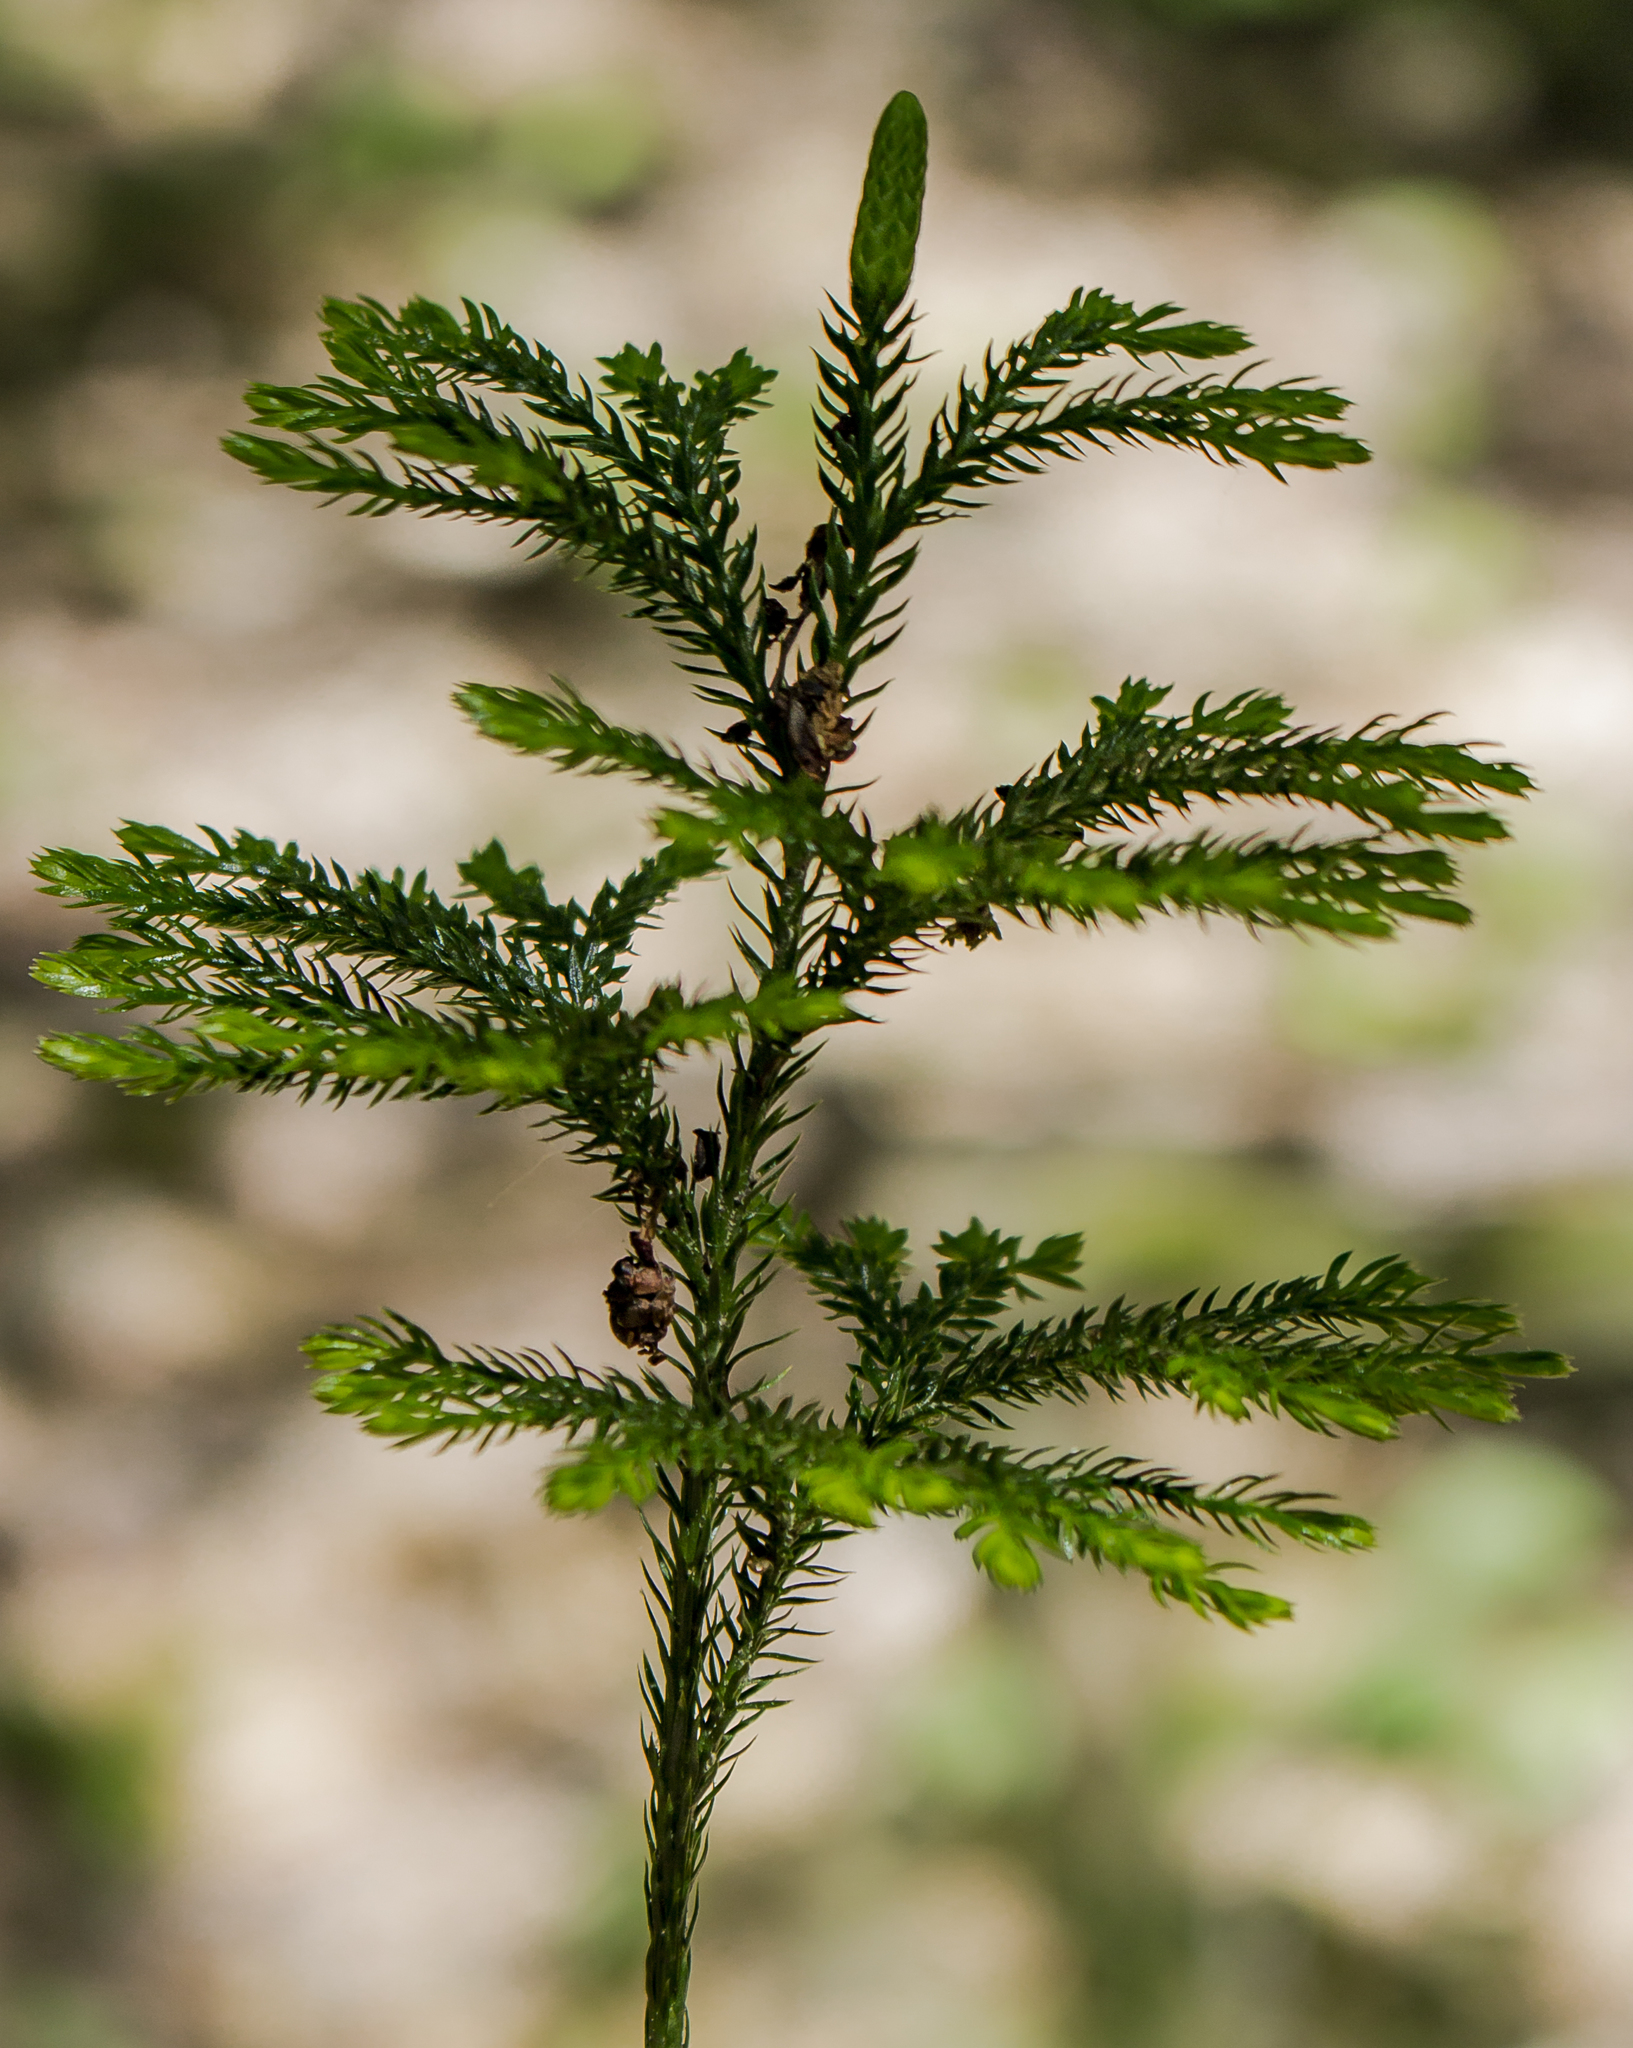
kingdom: Plantae
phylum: Tracheophyta
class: Lycopodiopsida
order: Lycopodiales
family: Lycopodiaceae
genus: Dendrolycopodium
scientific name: Dendrolycopodium obscurum
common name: Common ground-pine
